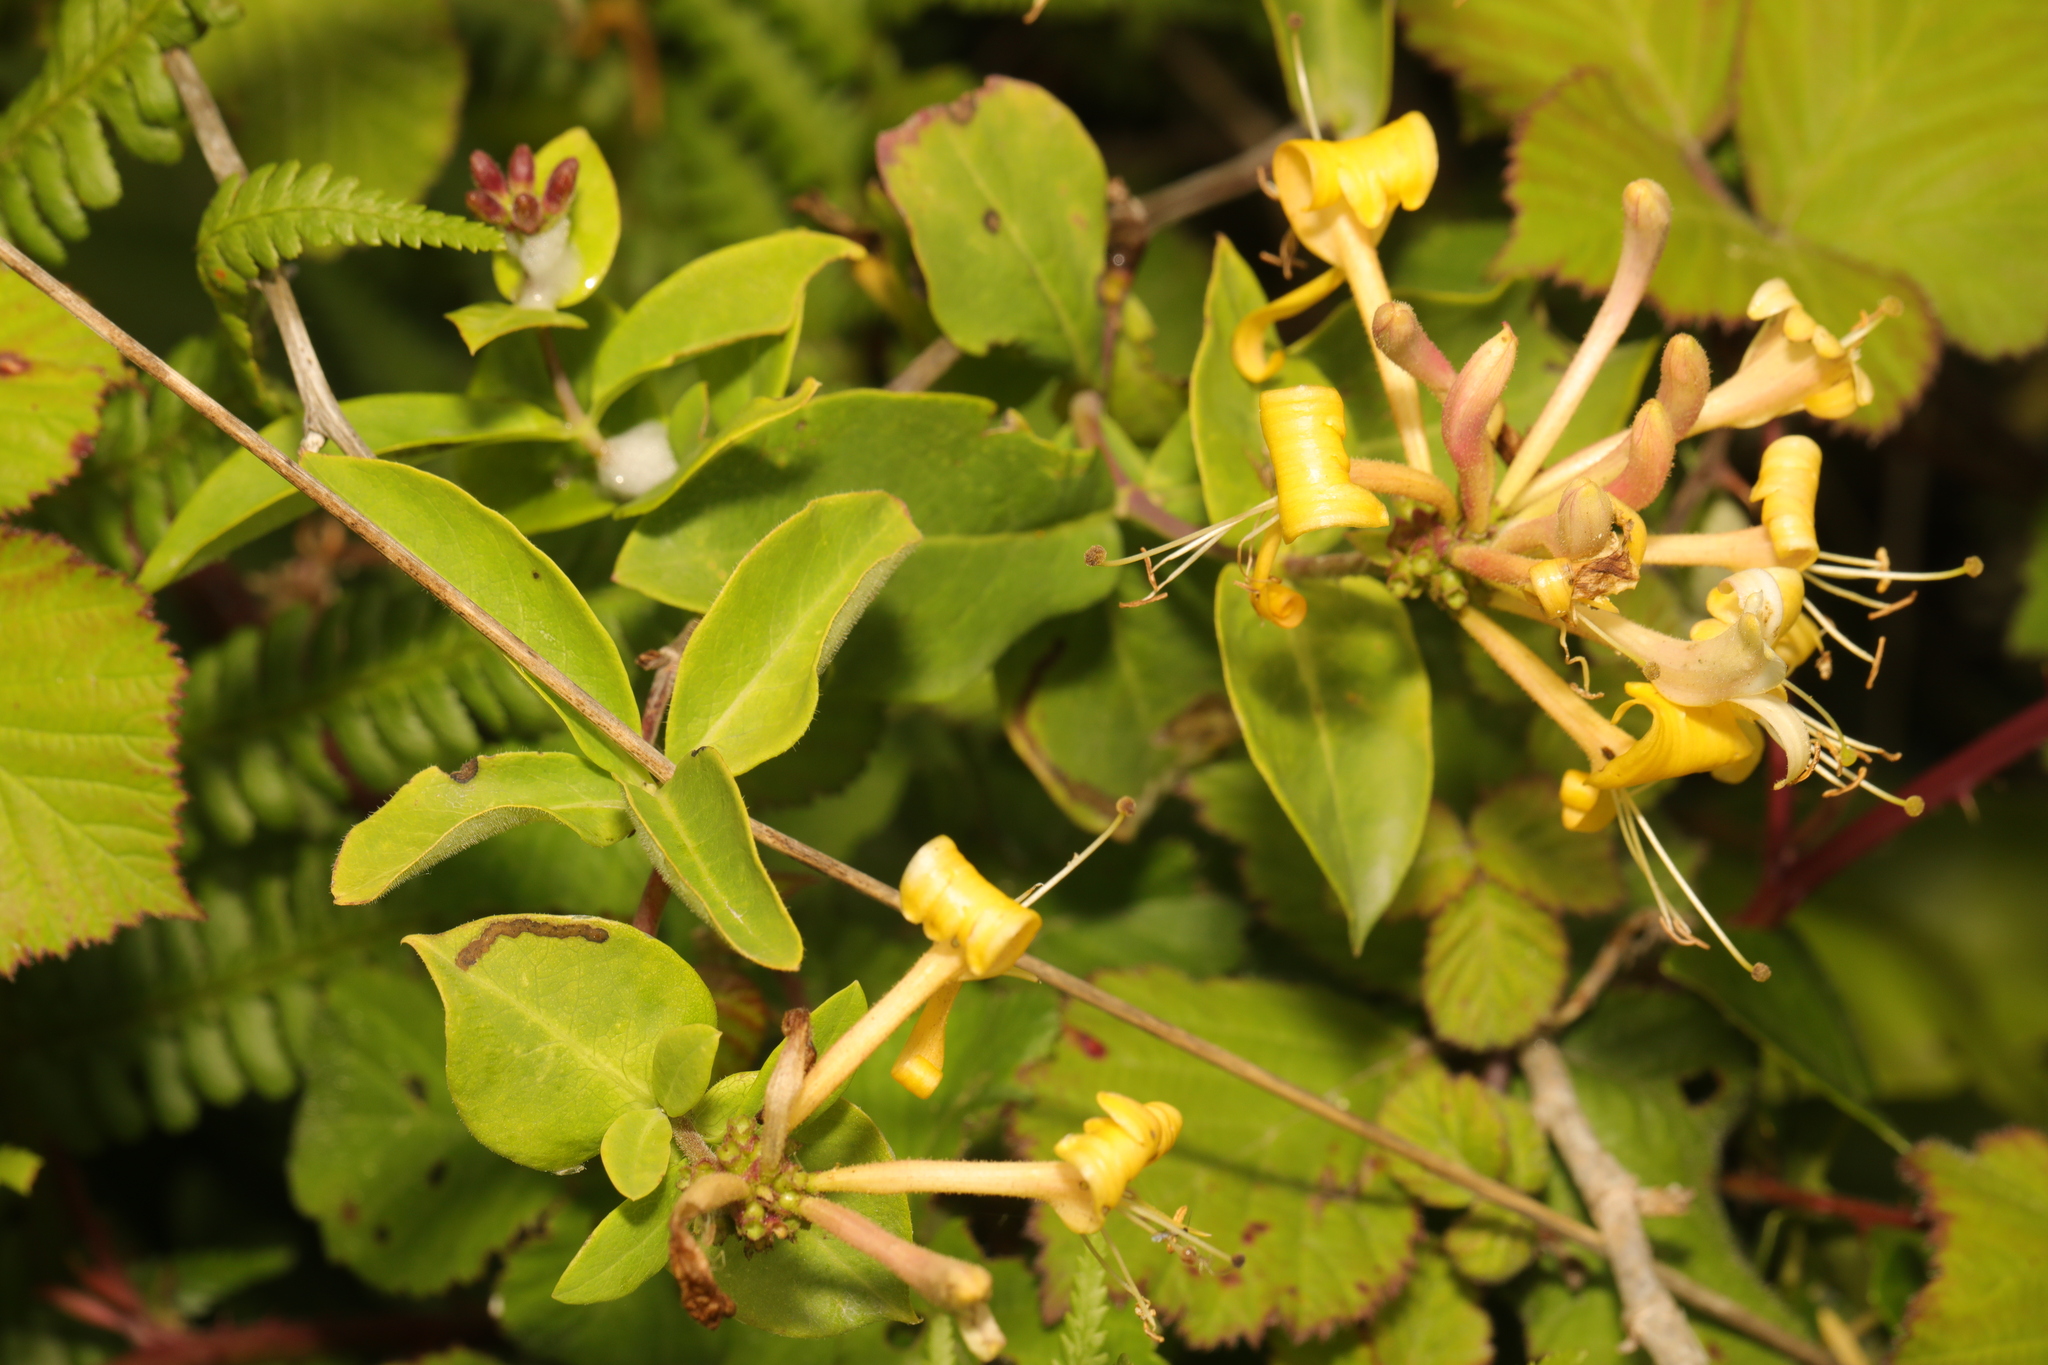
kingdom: Plantae
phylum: Tracheophyta
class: Magnoliopsida
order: Dipsacales
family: Caprifoliaceae
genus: Lonicera
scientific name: Lonicera periclymenum
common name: European honeysuckle
